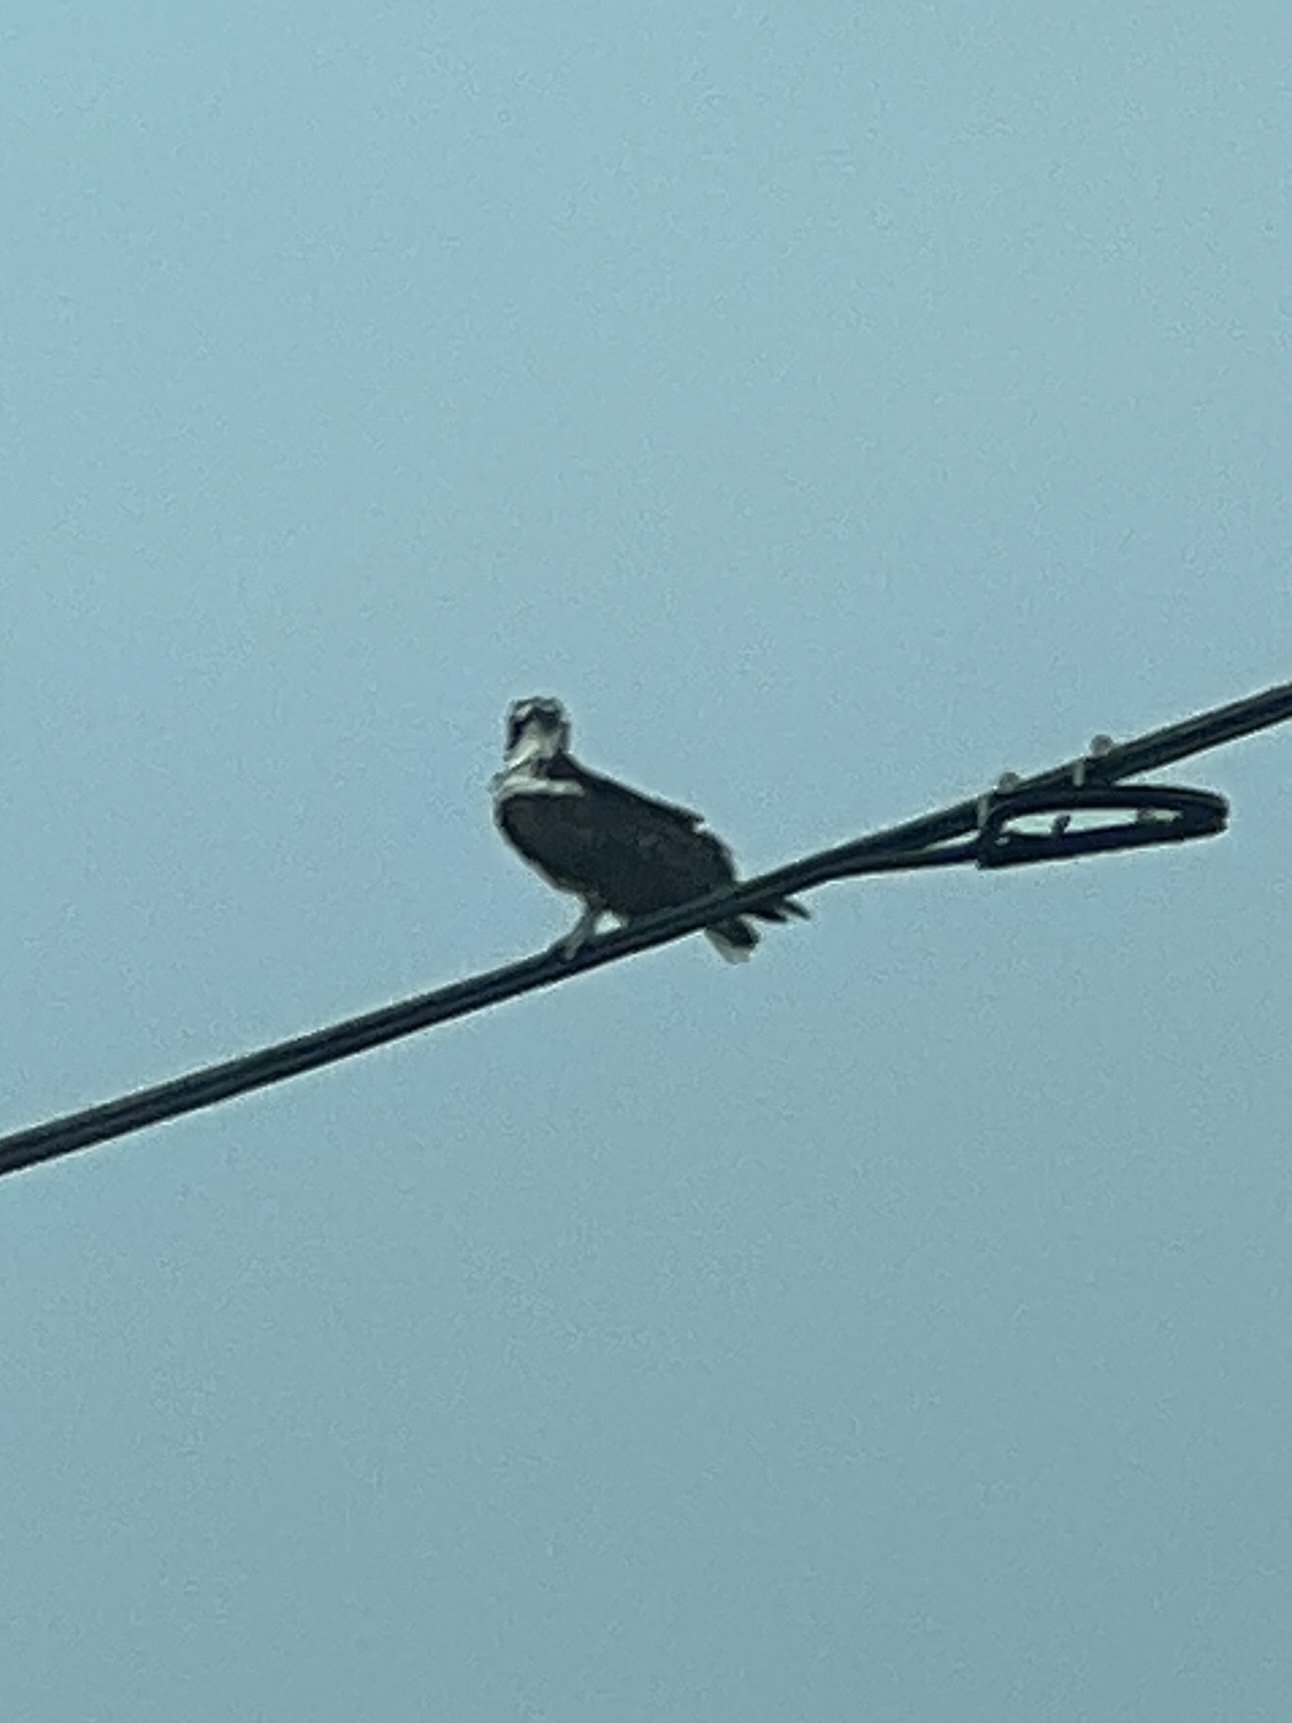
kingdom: Animalia
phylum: Chordata
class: Aves
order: Accipitriformes
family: Pandionidae
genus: Pandion
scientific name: Pandion haliaetus
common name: Osprey
